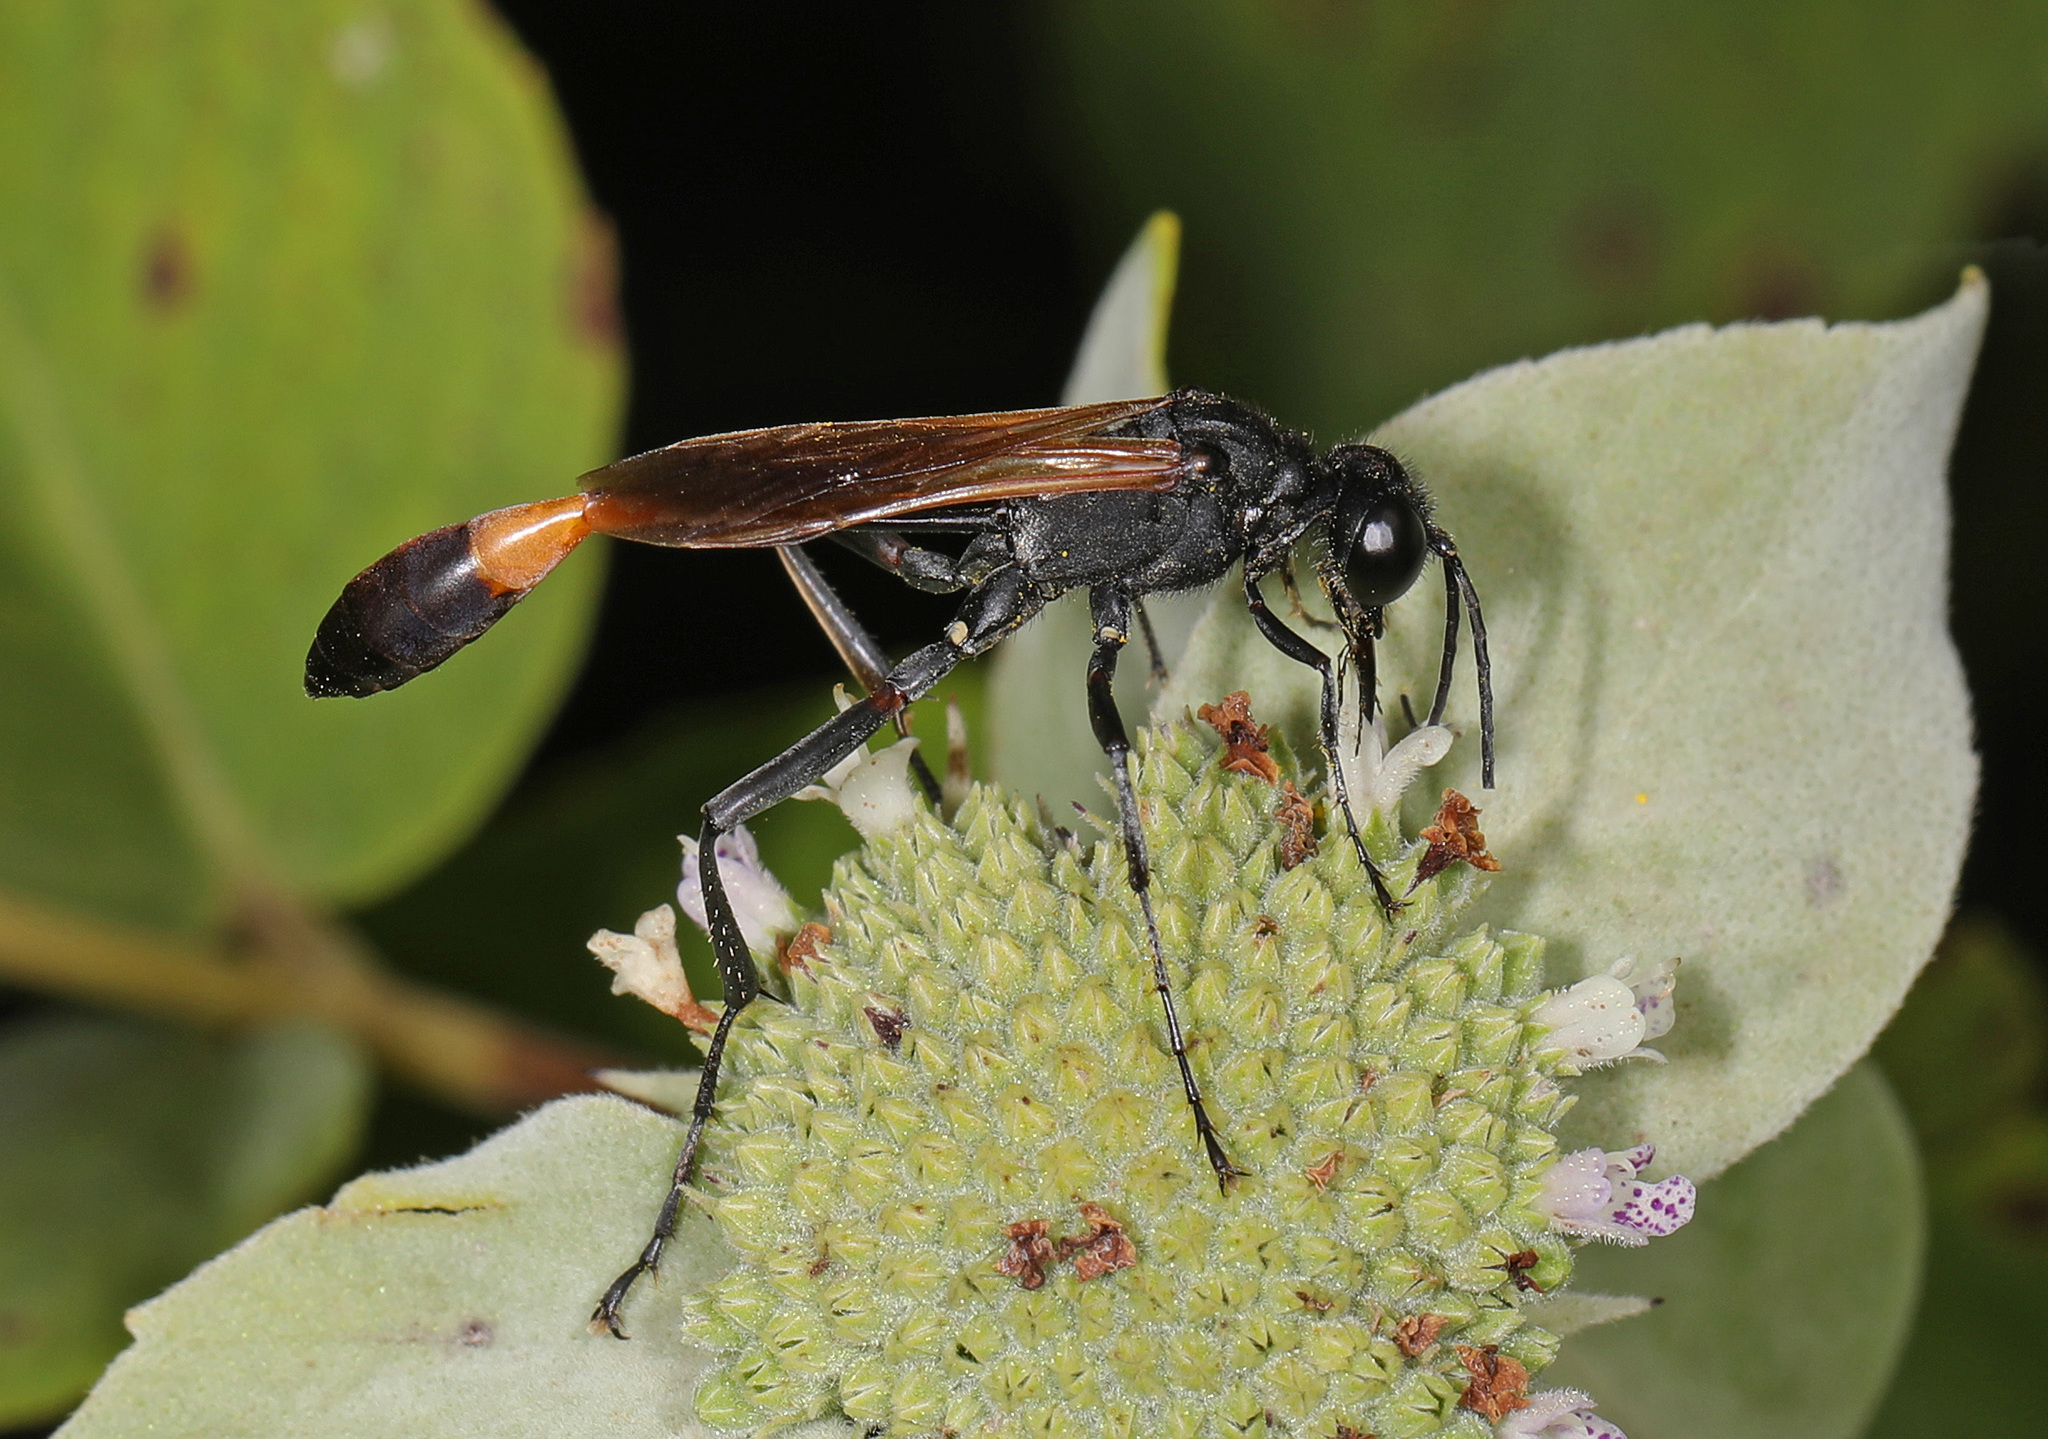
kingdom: Animalia
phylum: Arthropoda
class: Insecta
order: Hymenoptera
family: Sphecidae
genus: Ammophila
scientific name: Ammophila pictipennis
